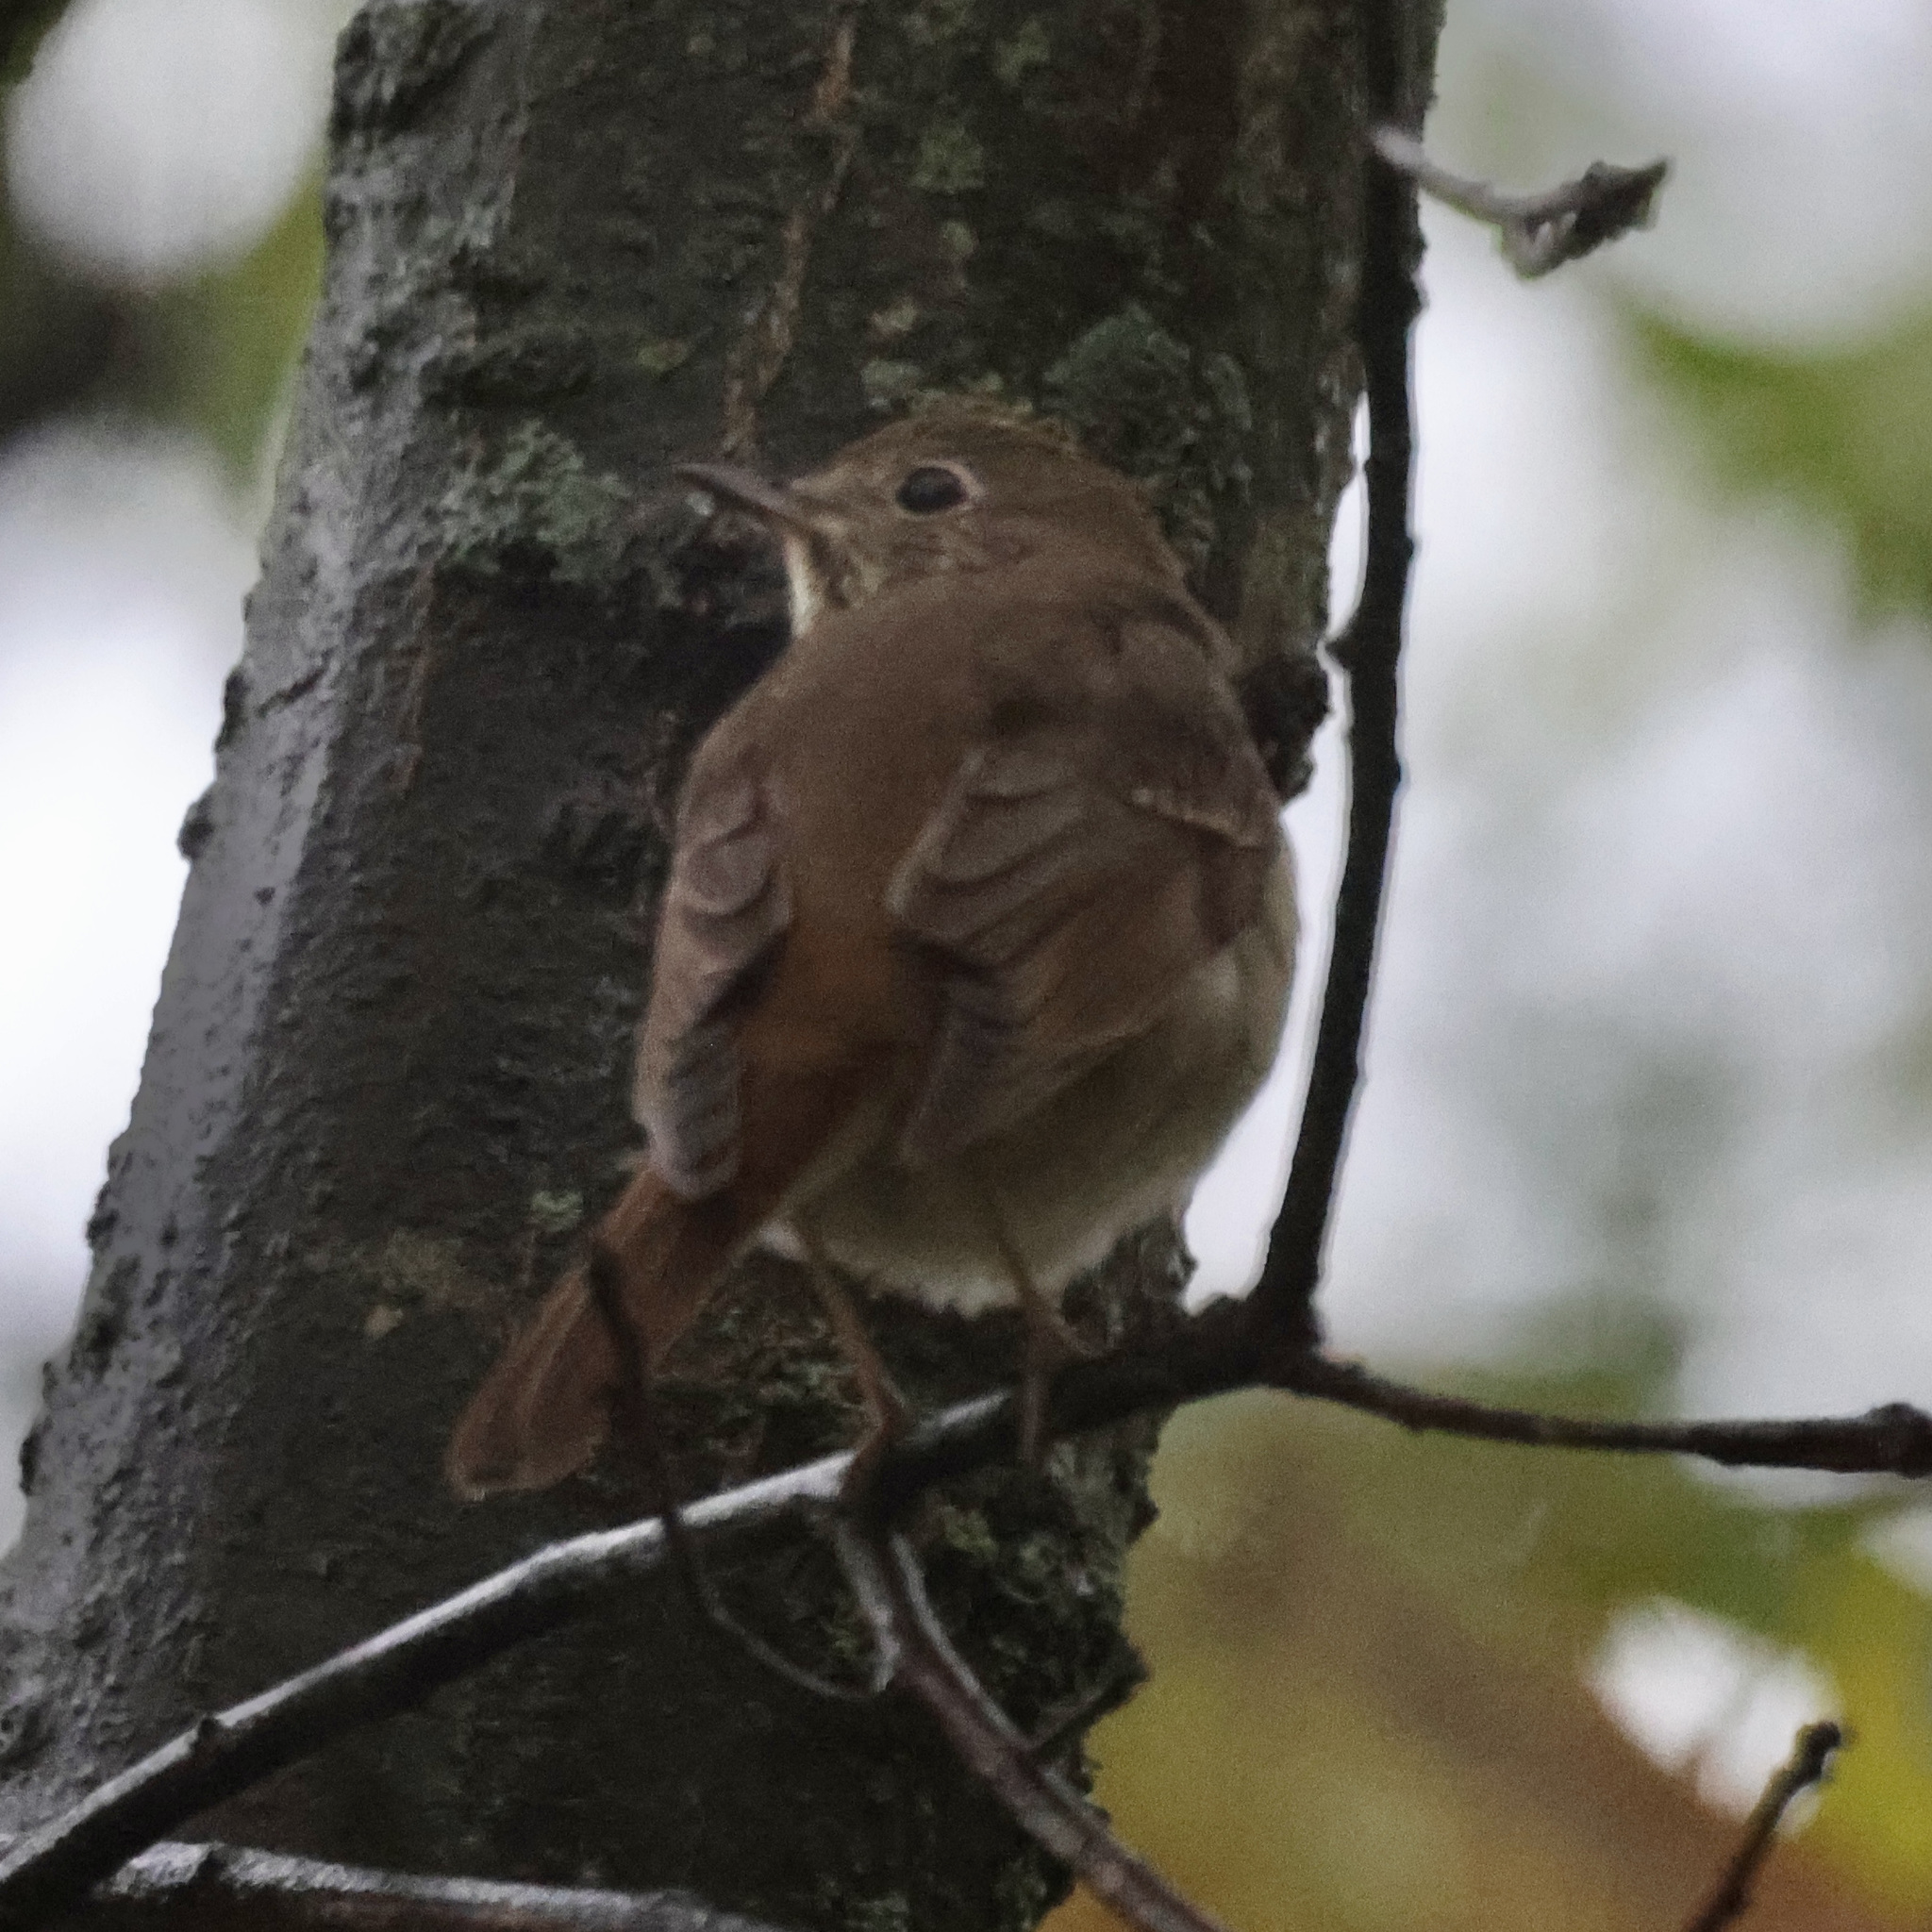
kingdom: Animalia
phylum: Chordata
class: Aves
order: Passeriformes
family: Turdidae
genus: Catharus
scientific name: Catharus guttatus
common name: Hermit thrush
